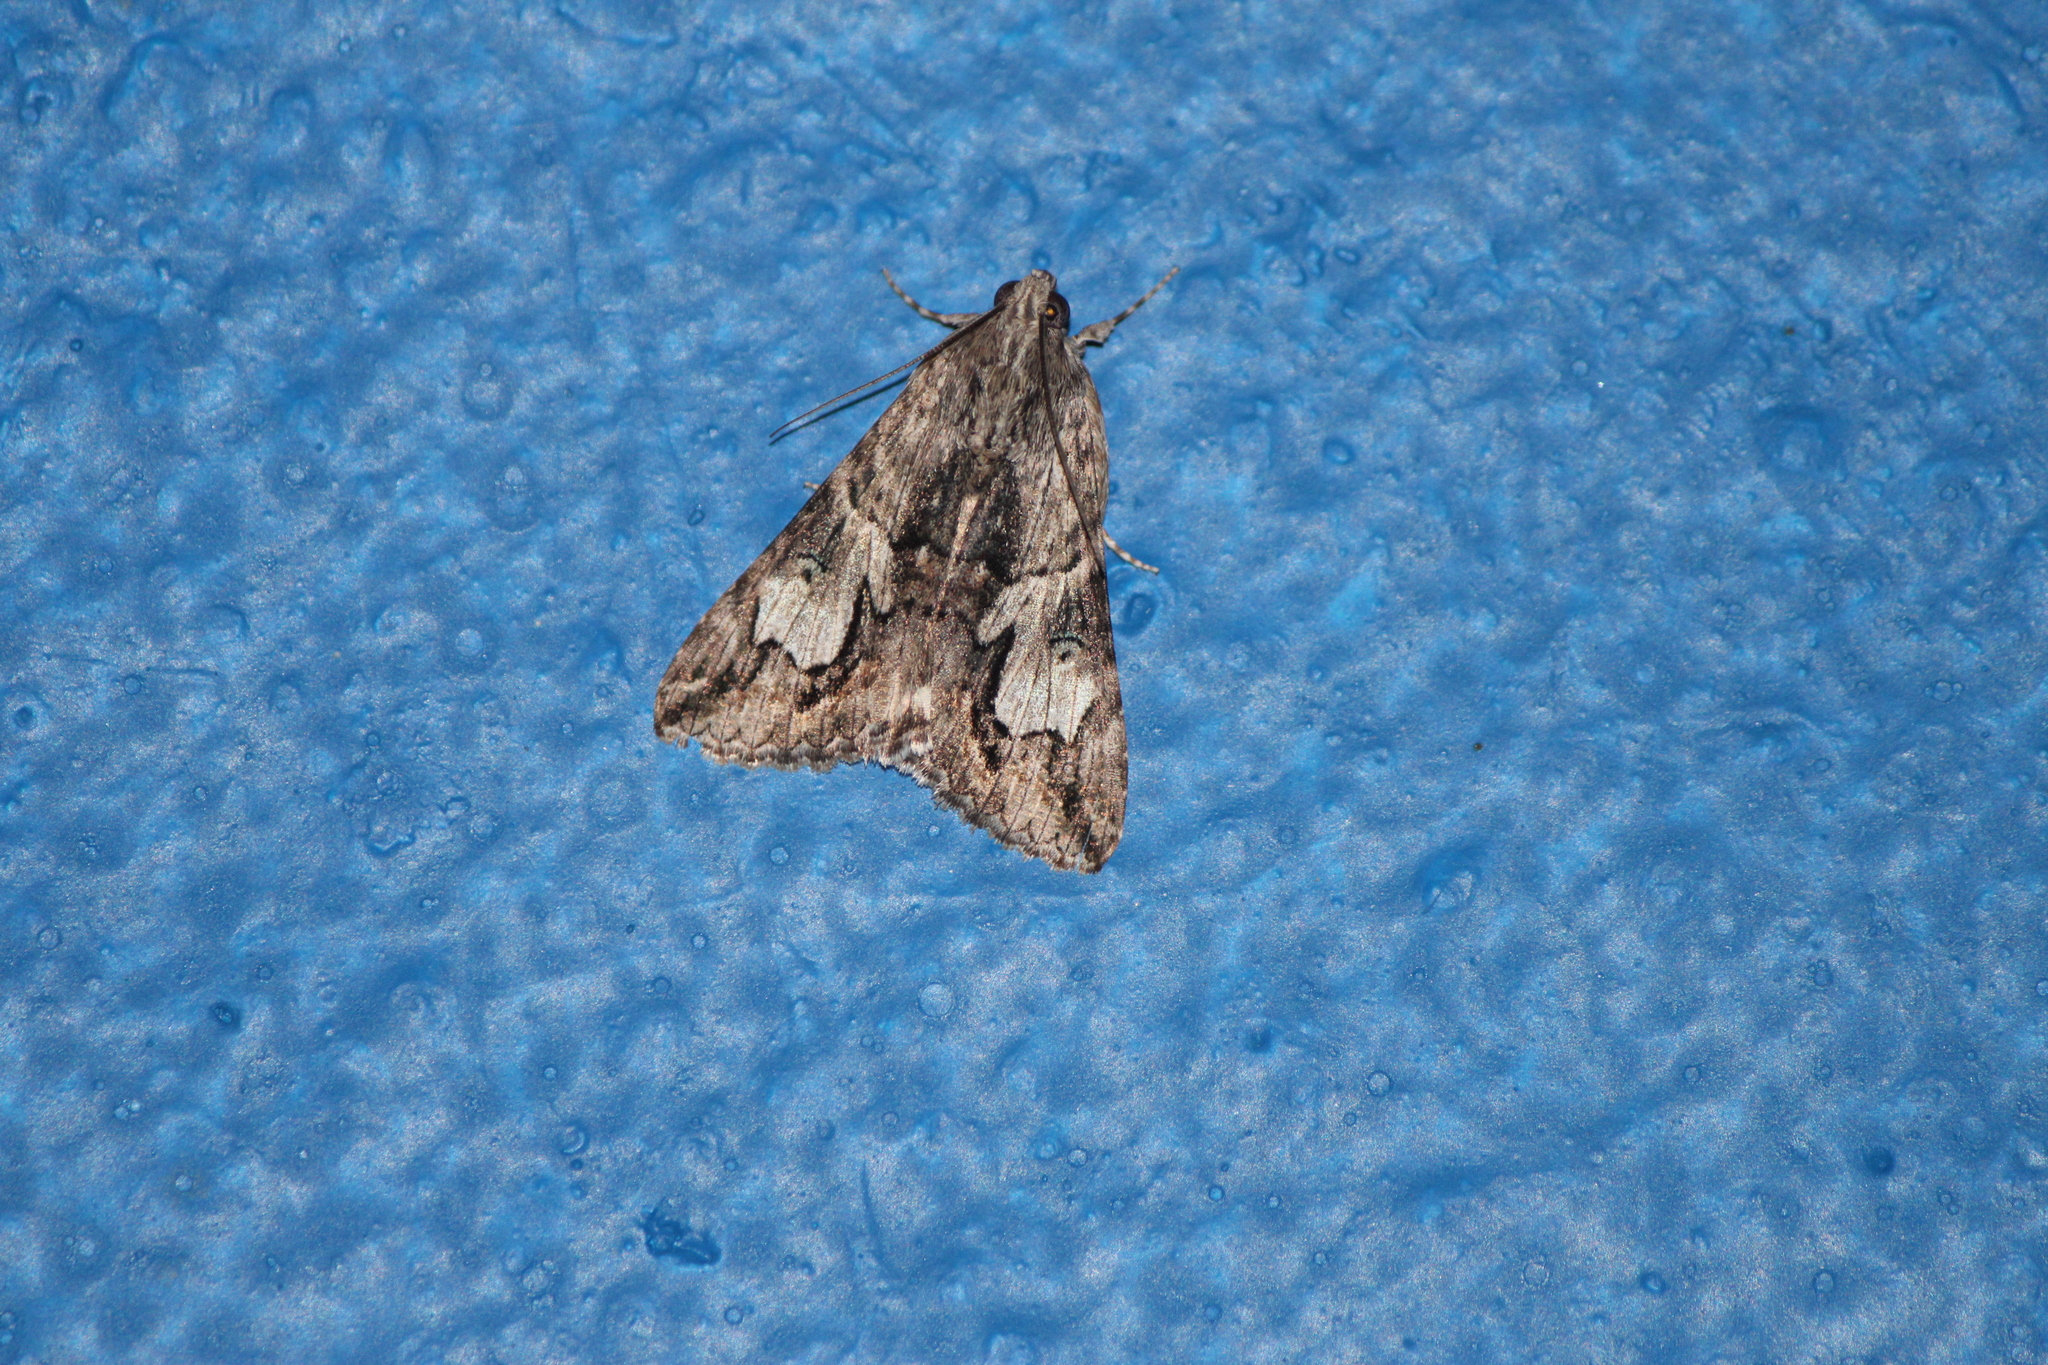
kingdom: Animalia
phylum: Arthropoda
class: Insecta
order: Lepidoptera
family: Erebidae
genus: Melipotis
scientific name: Melipotis jucunda
